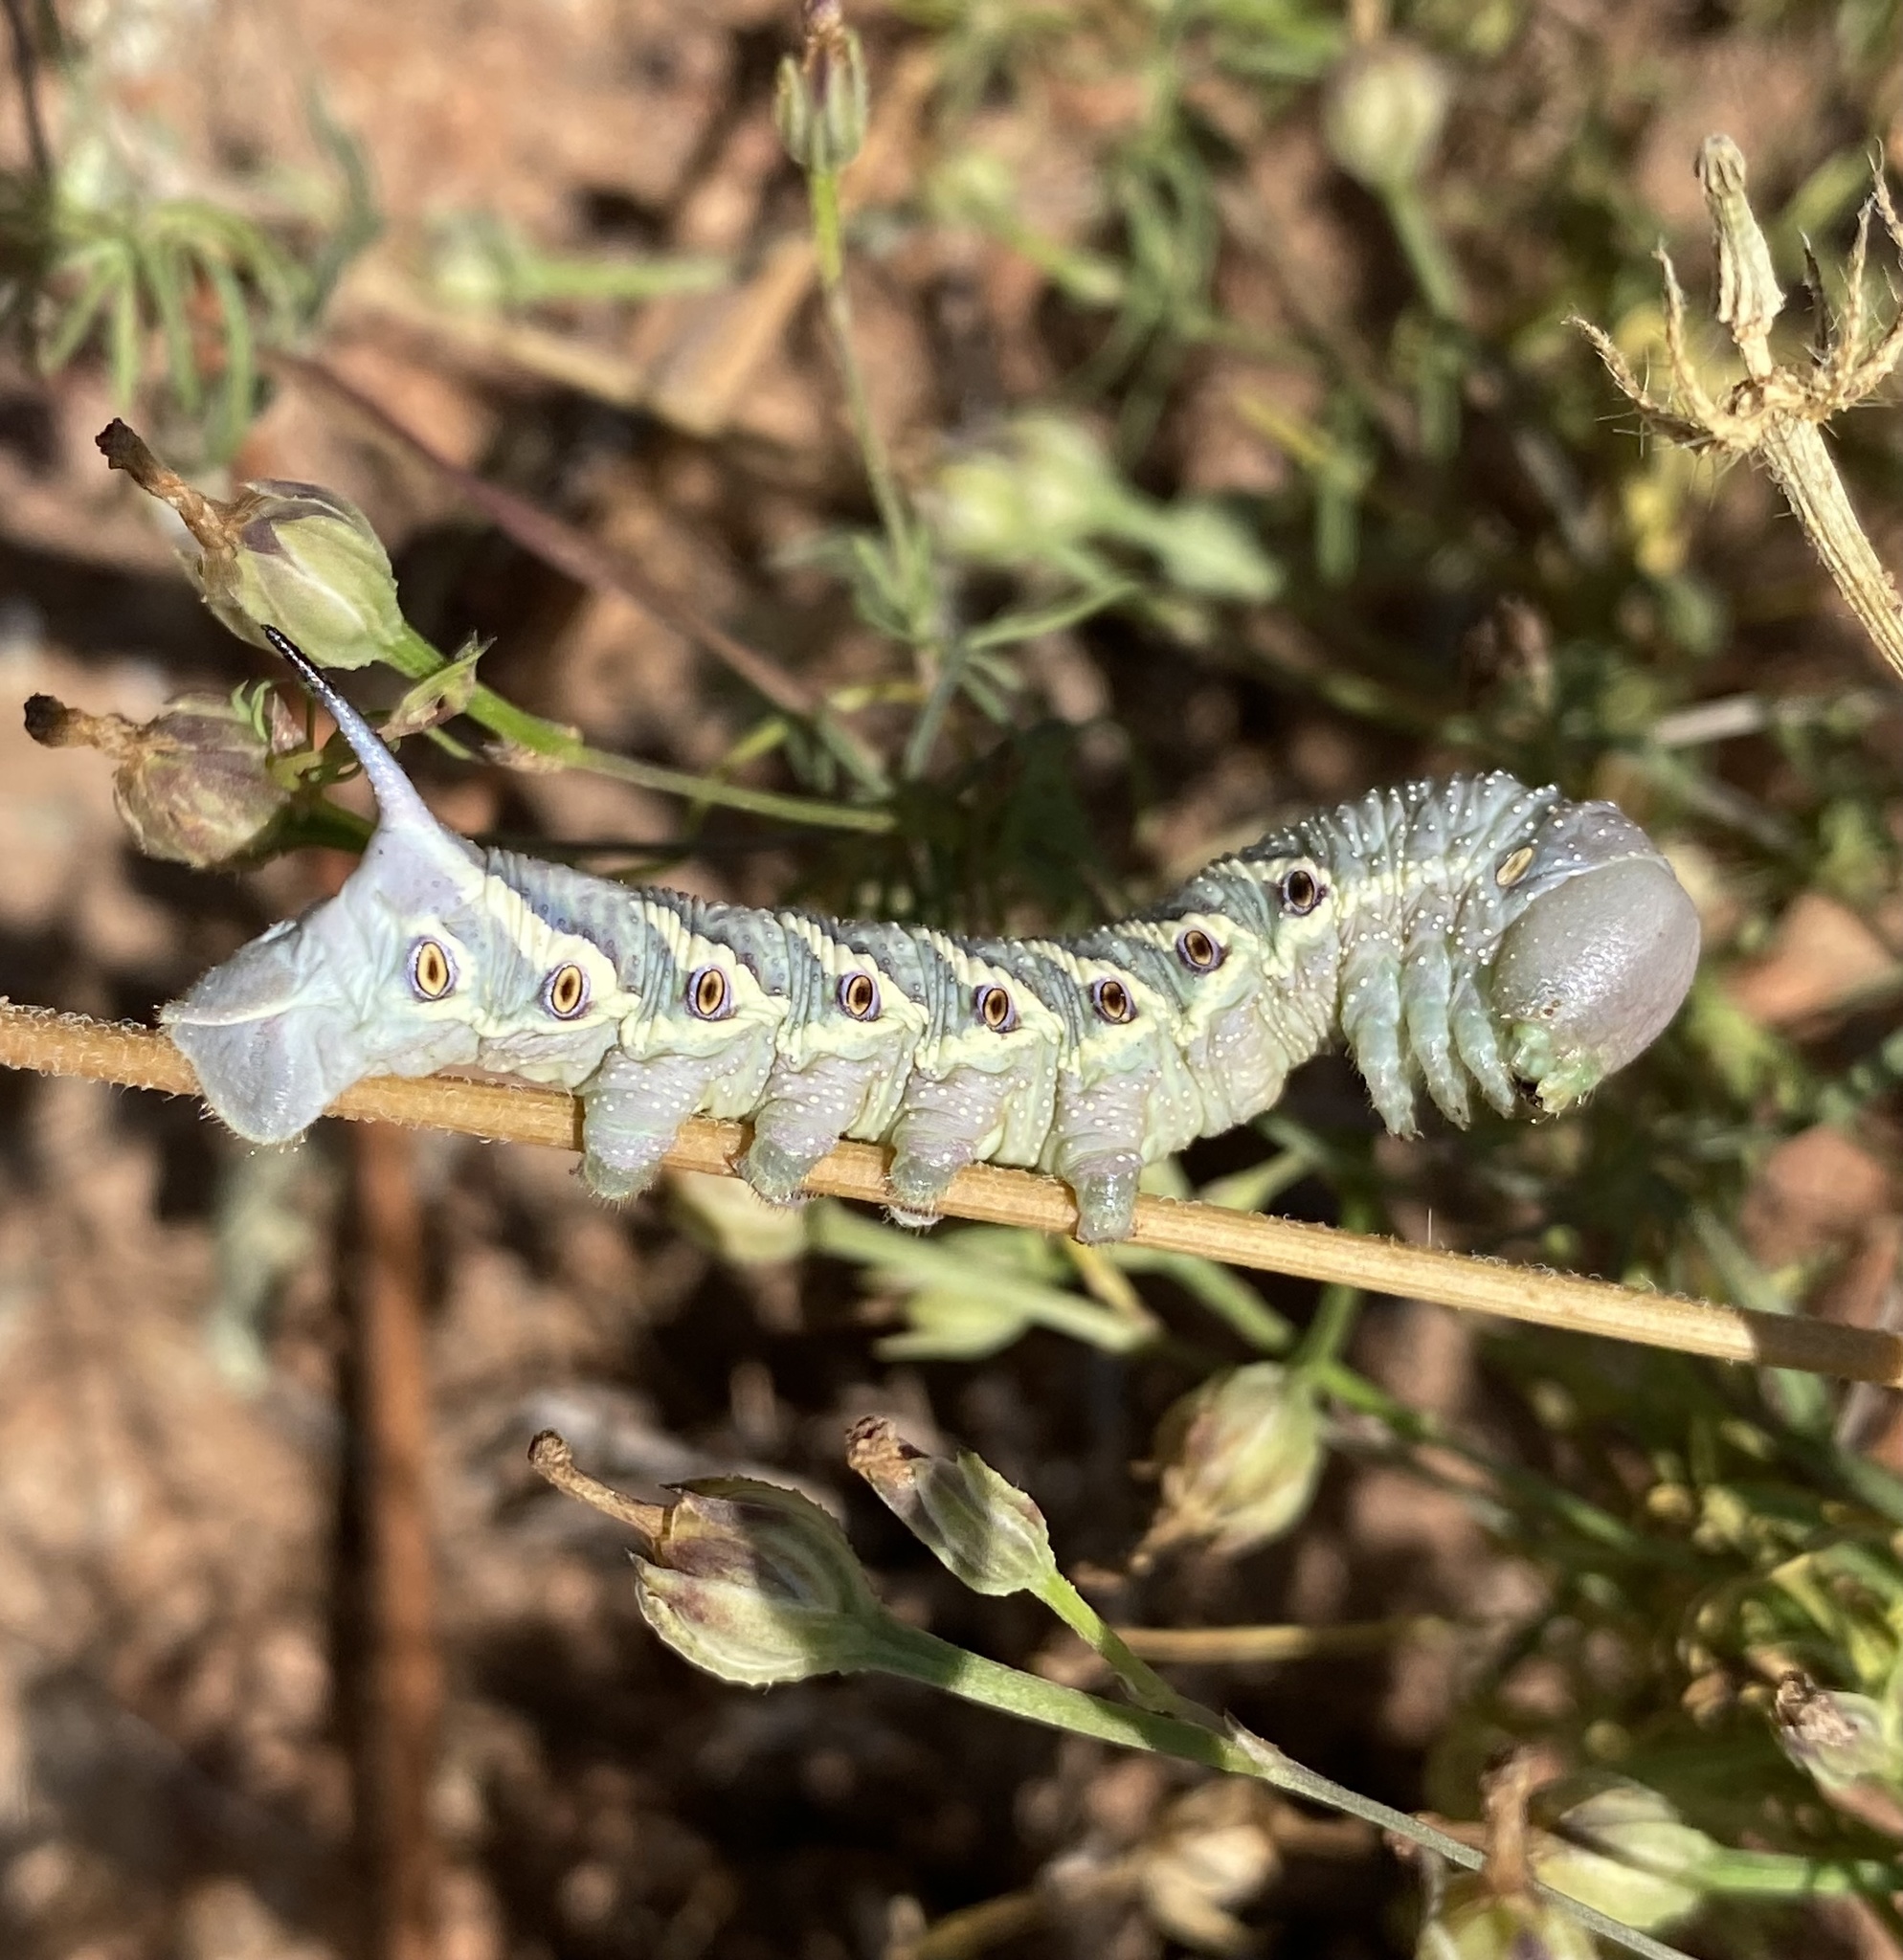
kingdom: Animalia
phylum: Arthropoda
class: Insecta
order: Lepidoptera
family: Sphingidae
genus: Manduca
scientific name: Manduca quinquemaculatus
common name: Five-spotted hawk-moth
